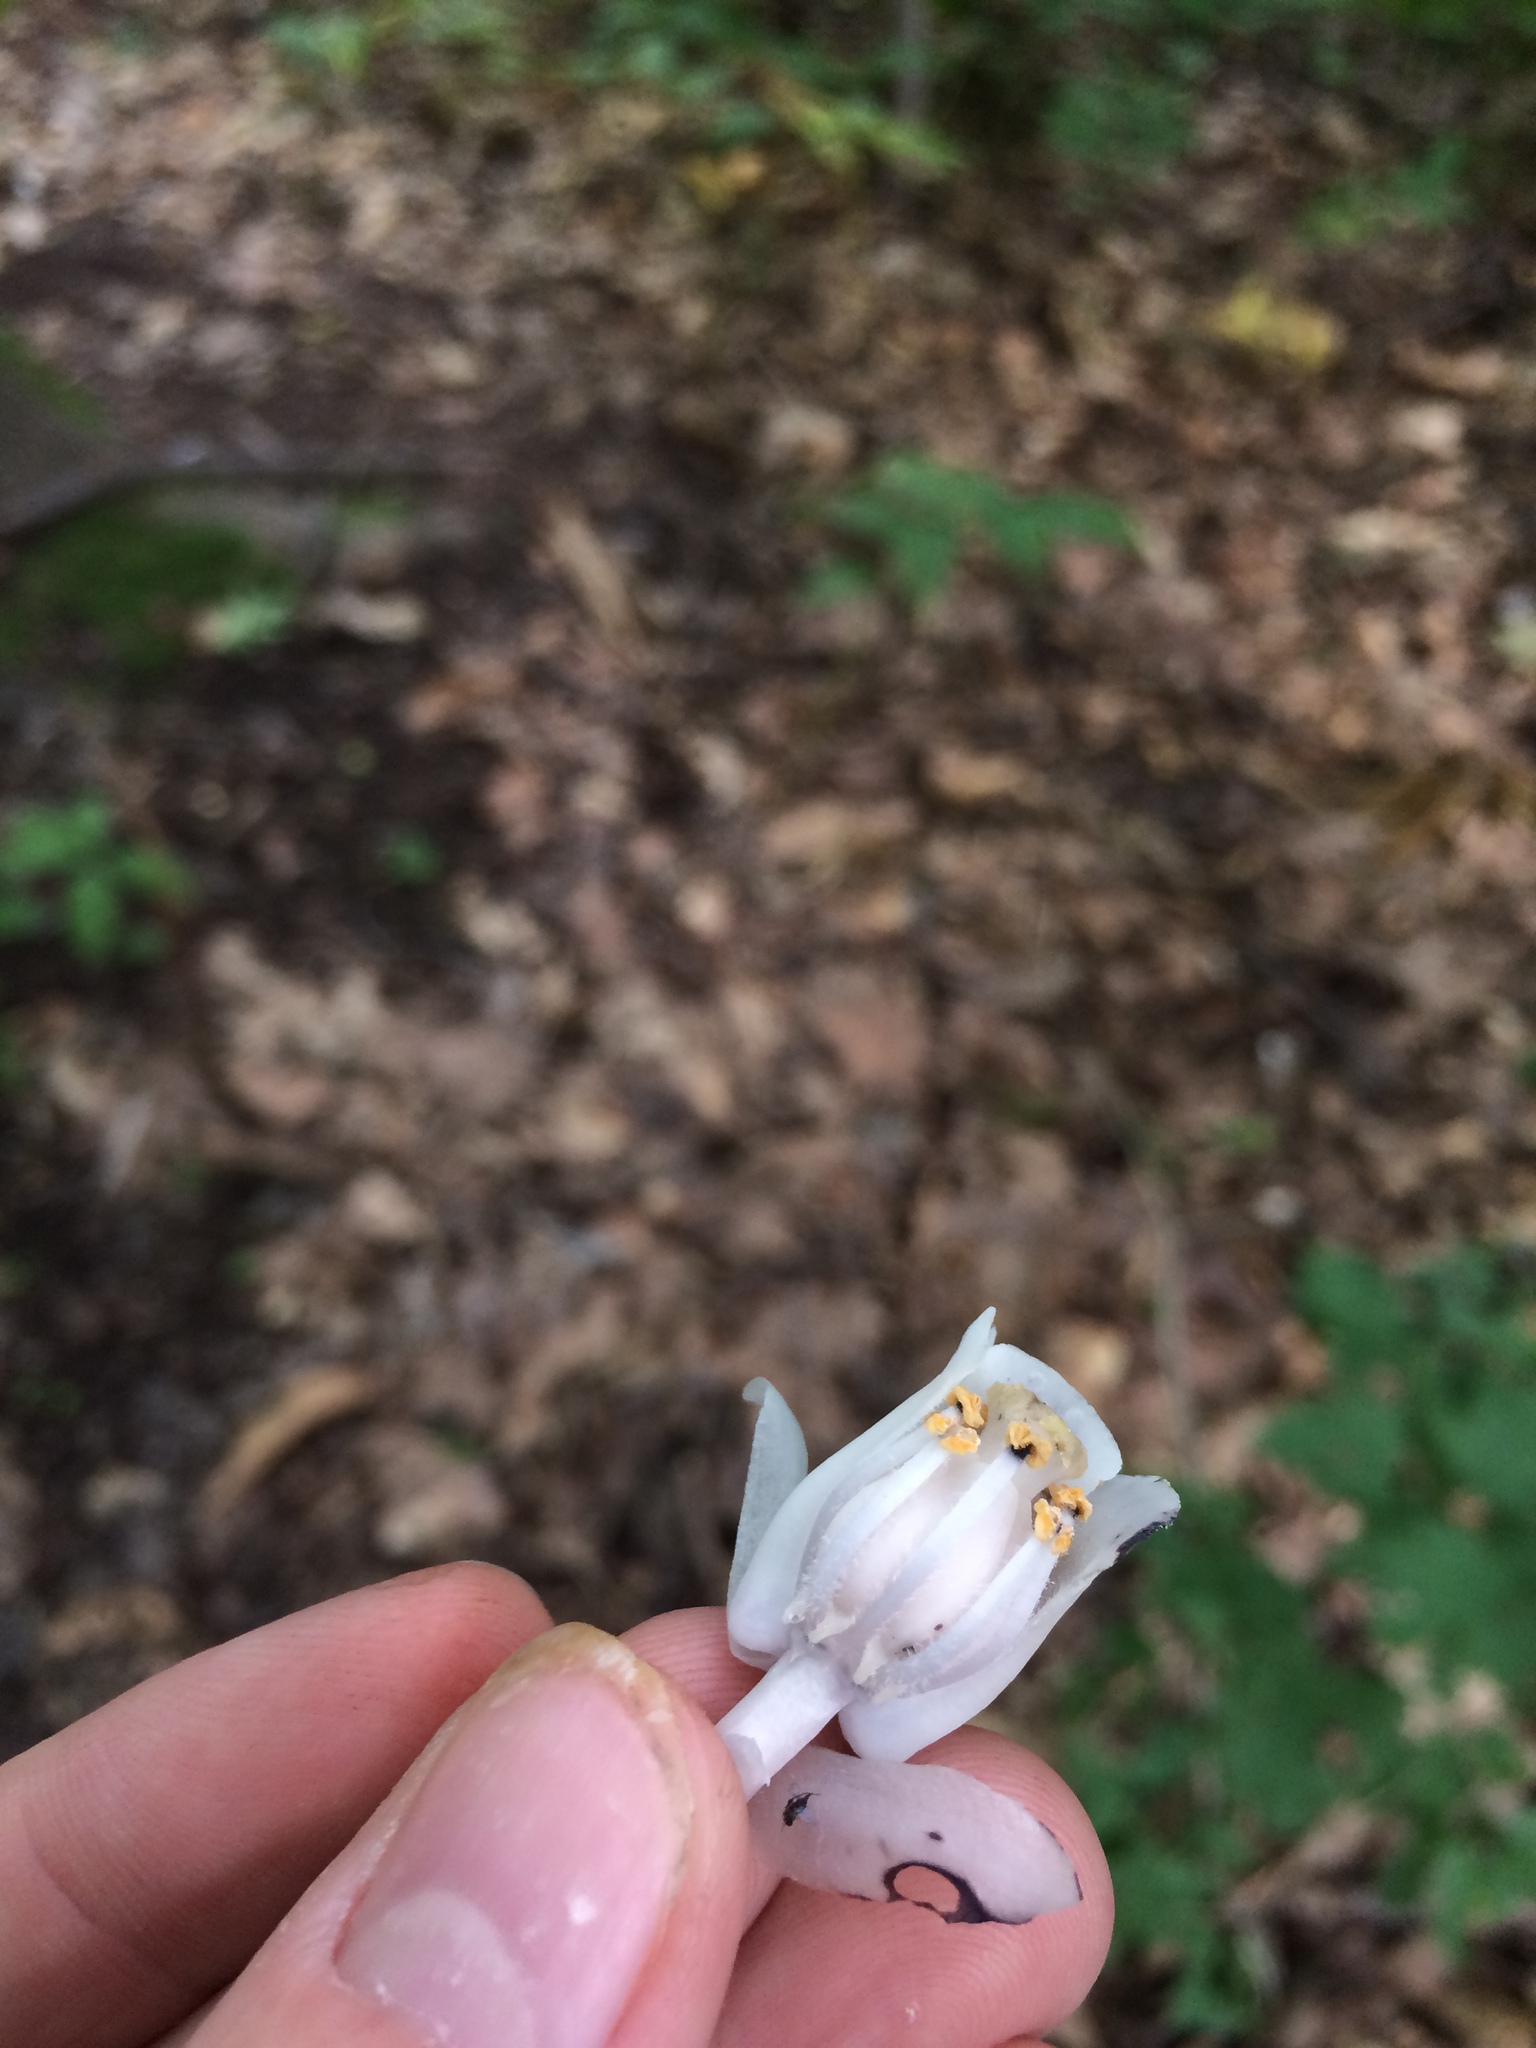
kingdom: Plantae
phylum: Tracheophyta
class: Magnoliopsida
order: Ericales
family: Ericaceae
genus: Monotropa
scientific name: Monotropa uniflora
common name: Convulsion root
